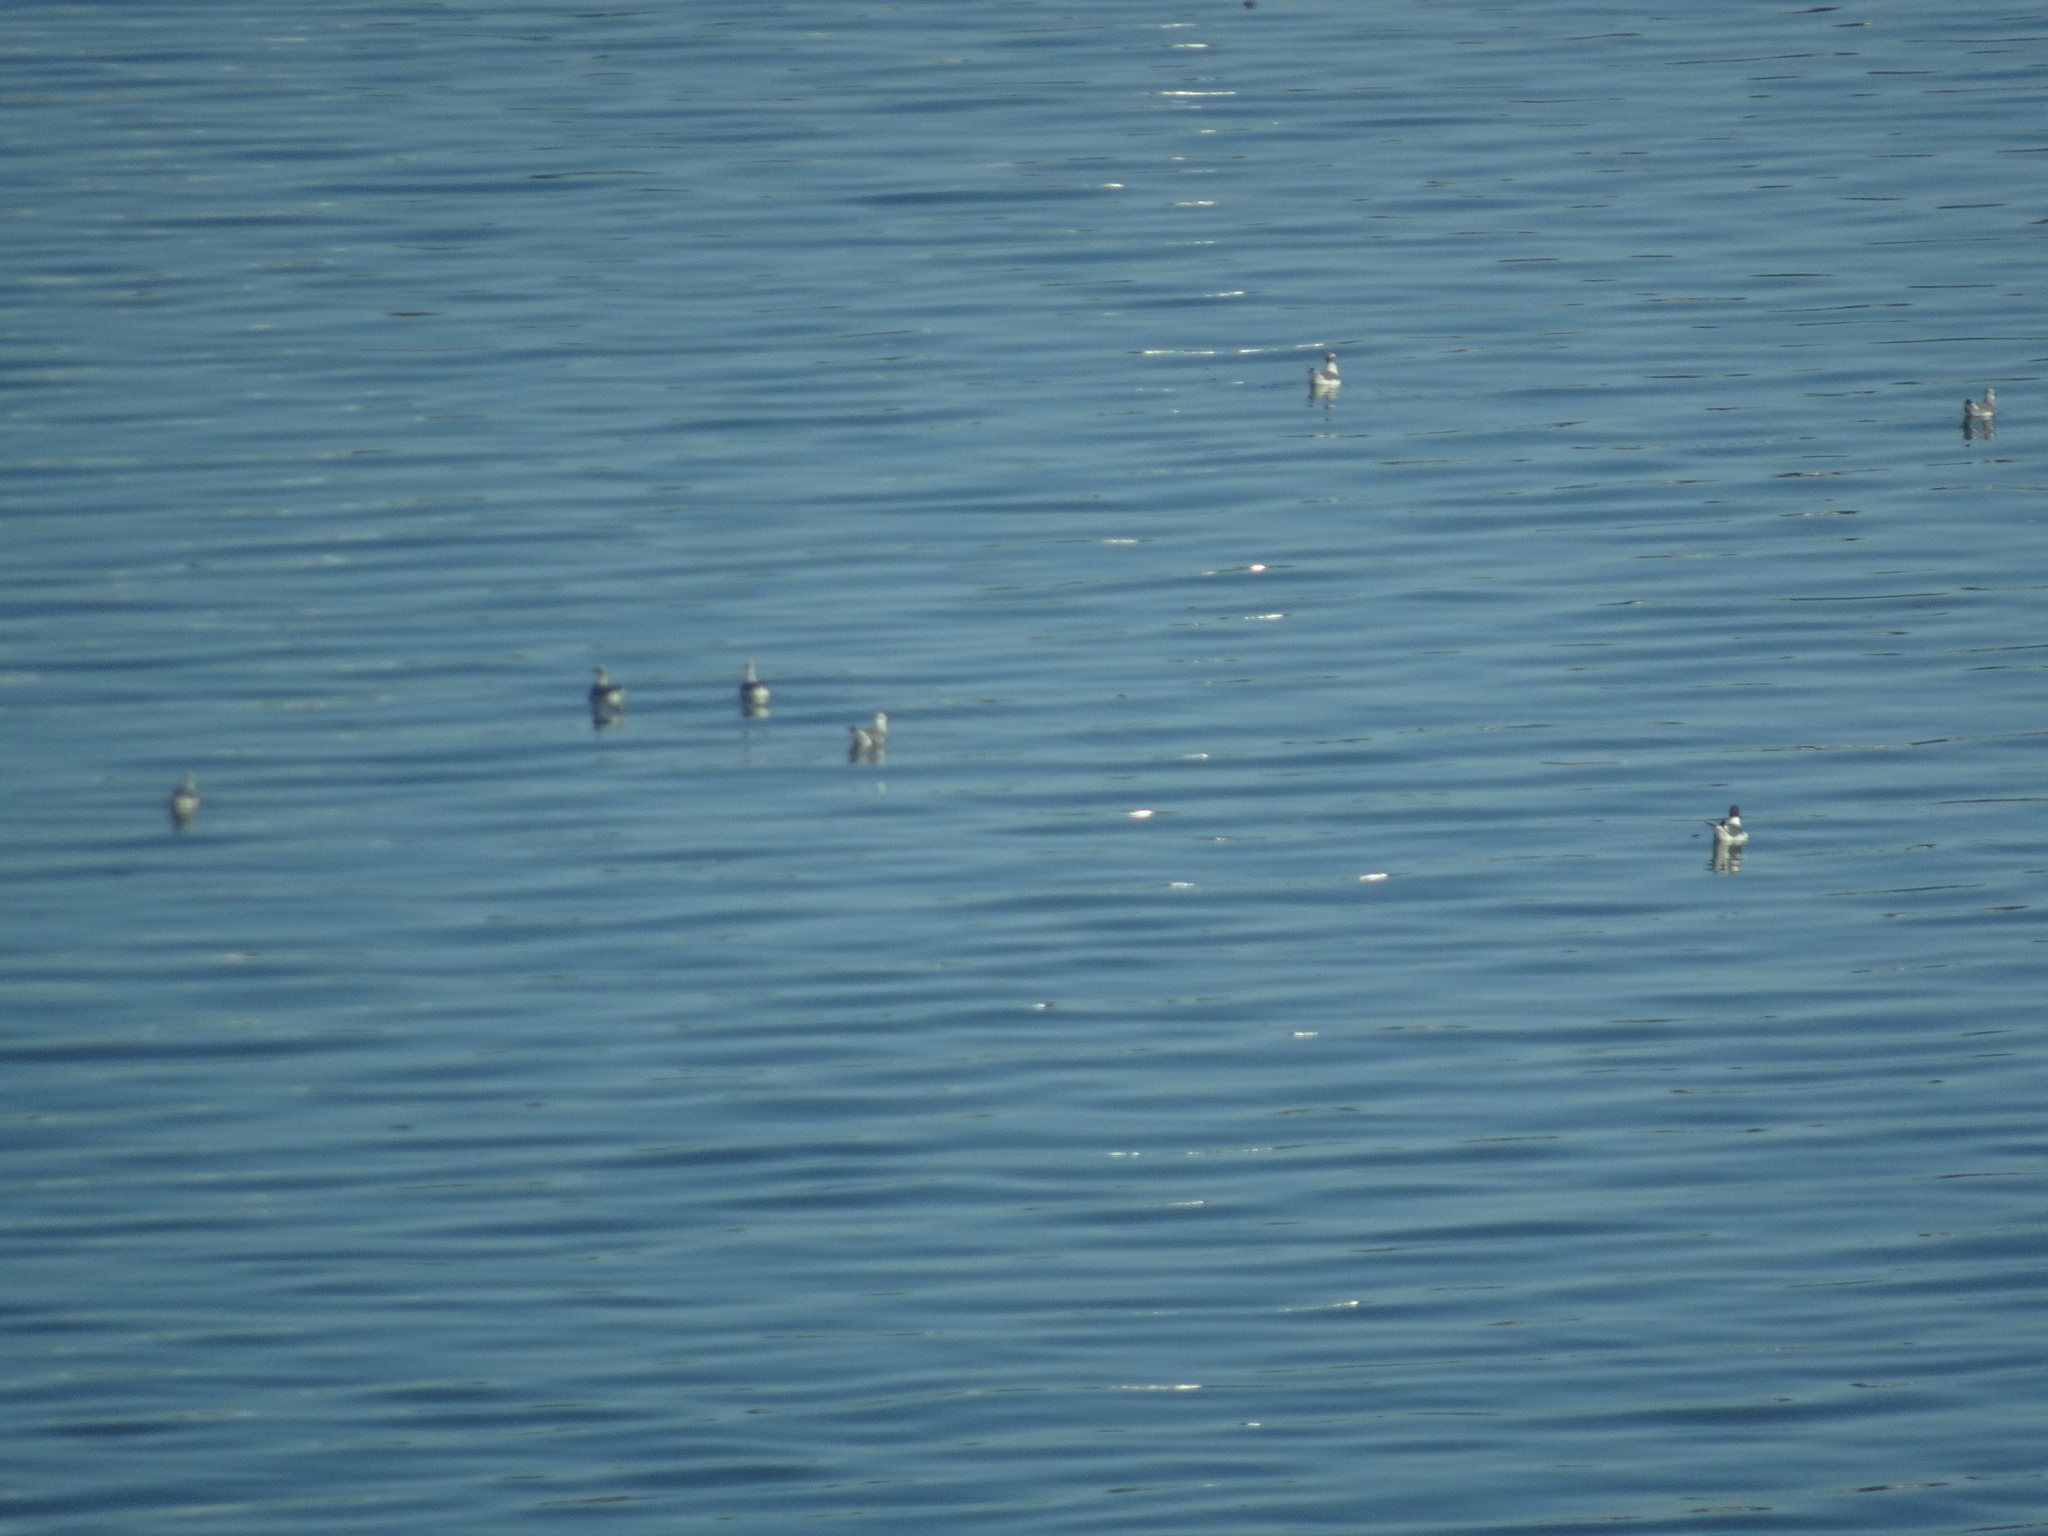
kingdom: Animalia
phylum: Chordata
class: Aves
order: Charadriiformes
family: Laridae
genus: Leucophaeus
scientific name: Leucophaeus atricilla
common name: Laughing gull
